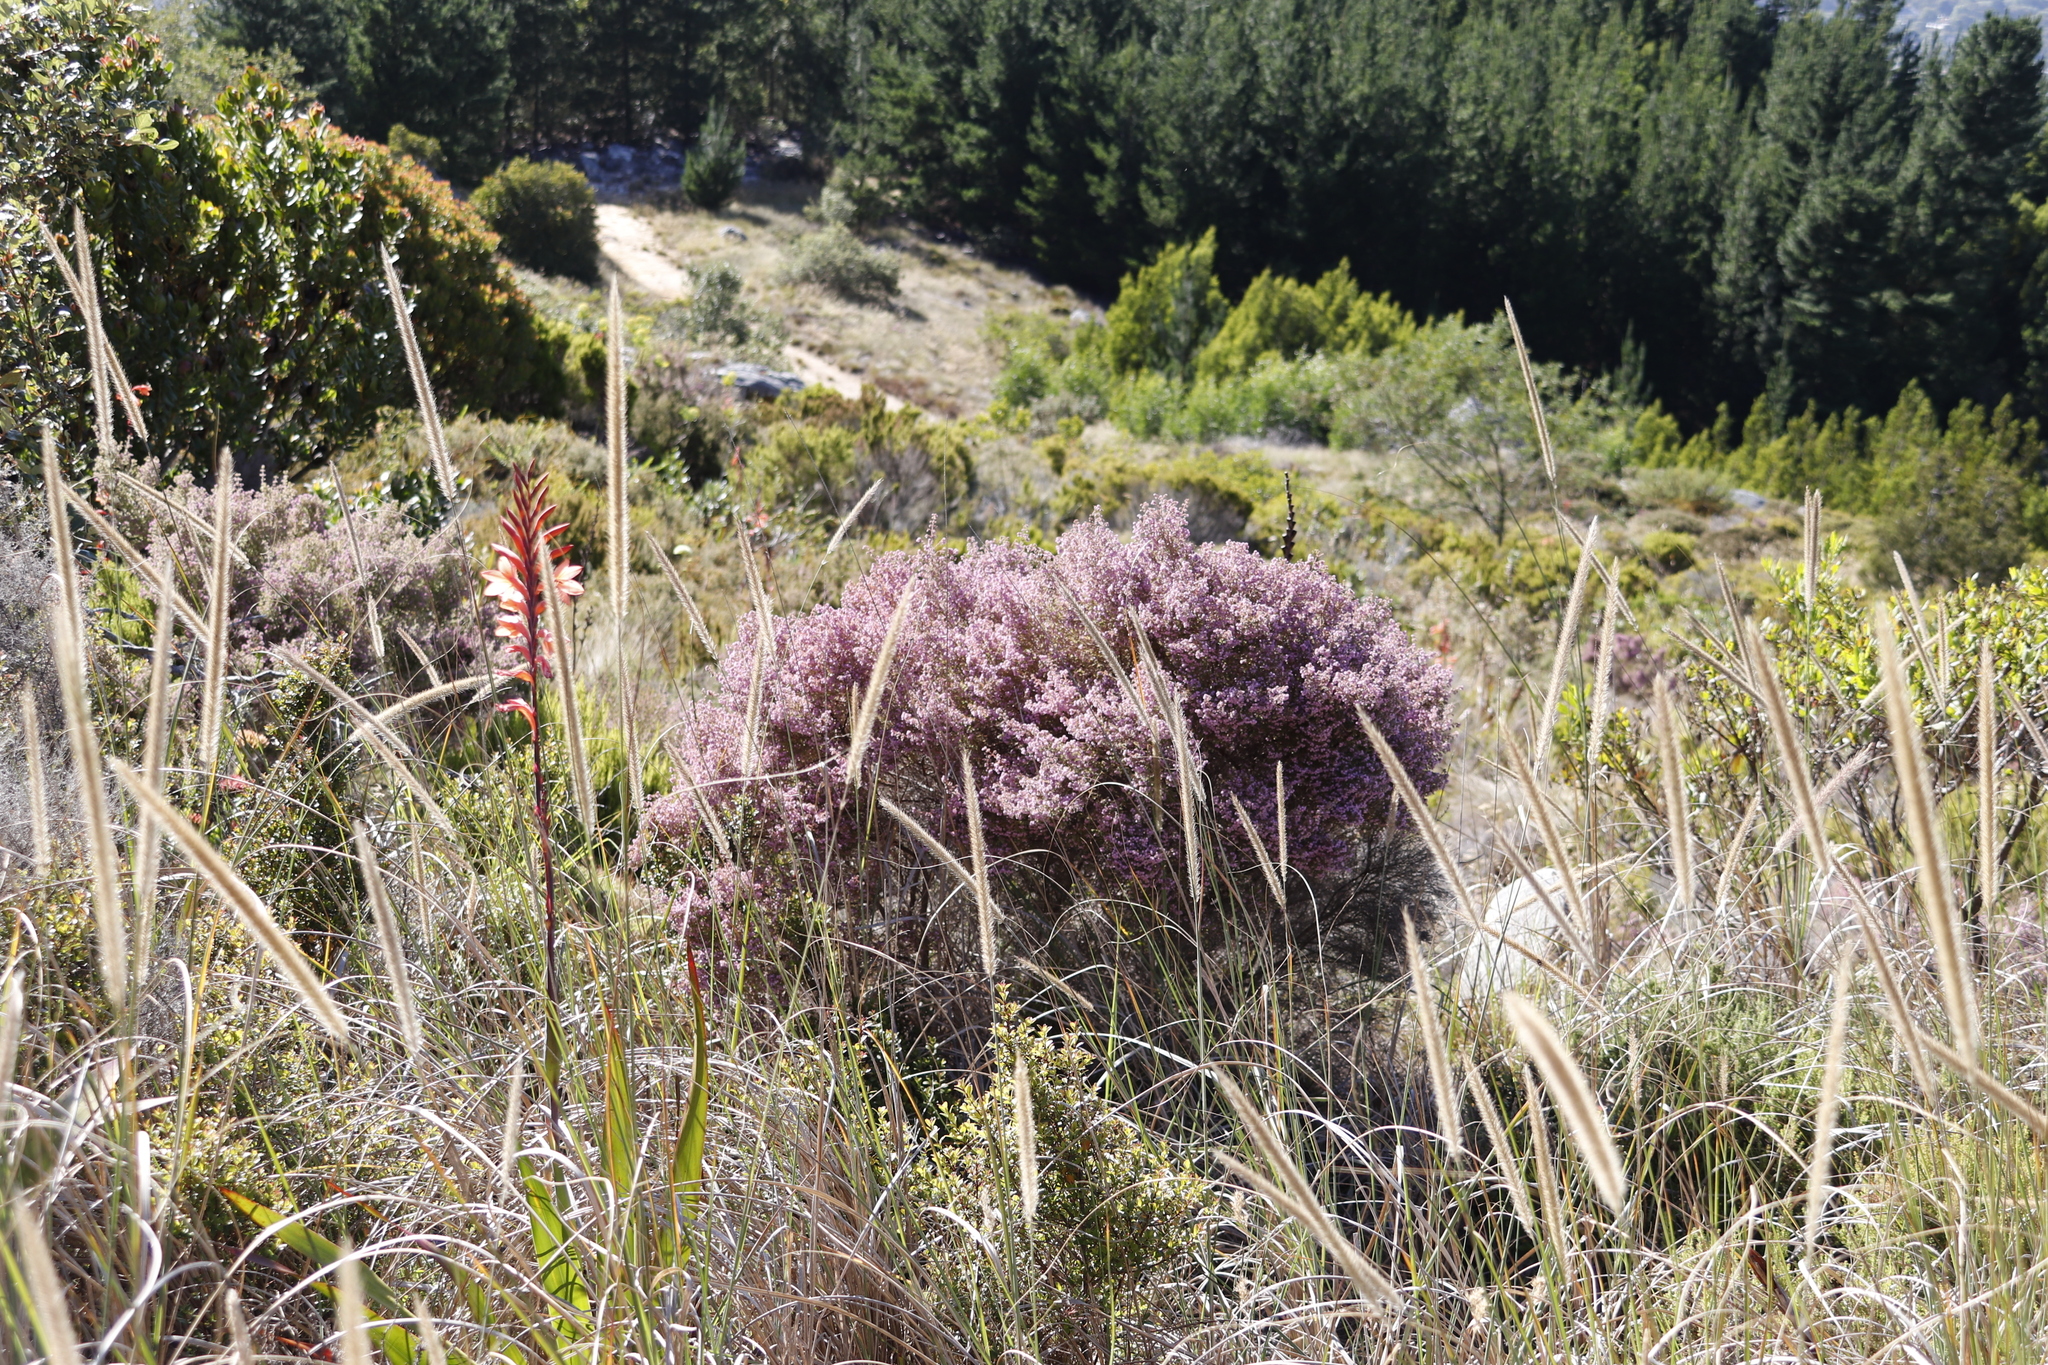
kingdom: Plantae
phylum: Tracheophyta
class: Magnoliopsida
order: Ericales
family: Ericaceae
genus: Erica
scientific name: Erica hirtiflora
